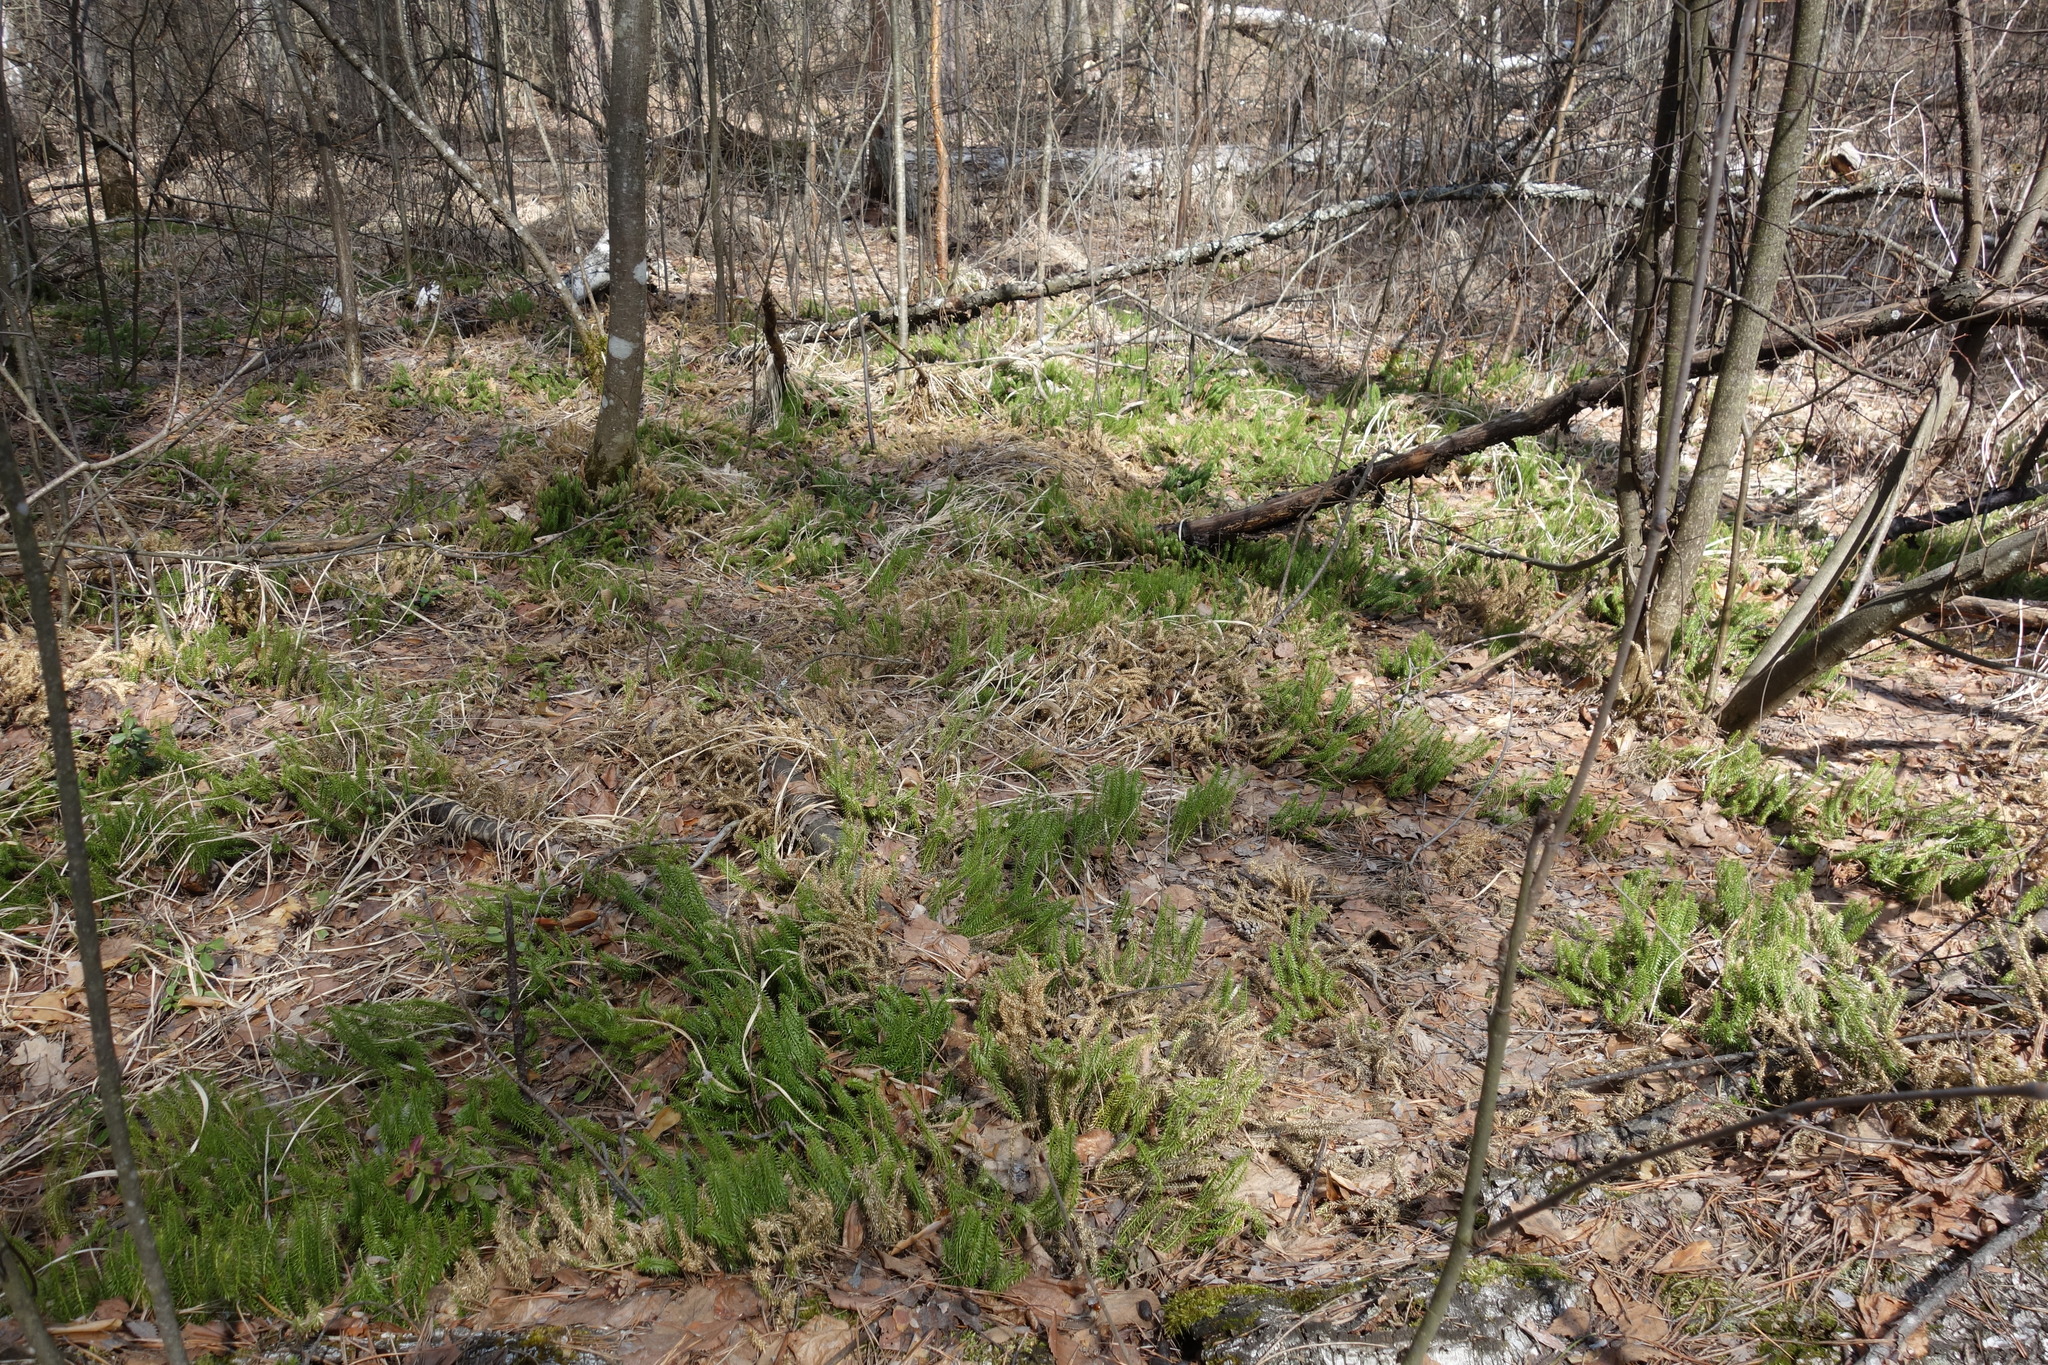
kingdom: Plantae
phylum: Tracheophyta
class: Lycopodiopsida
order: Lycopodiales
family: Lycopodiaceae
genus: Spinulum
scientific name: Spinulum annotinum
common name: Interrupted club-moss
